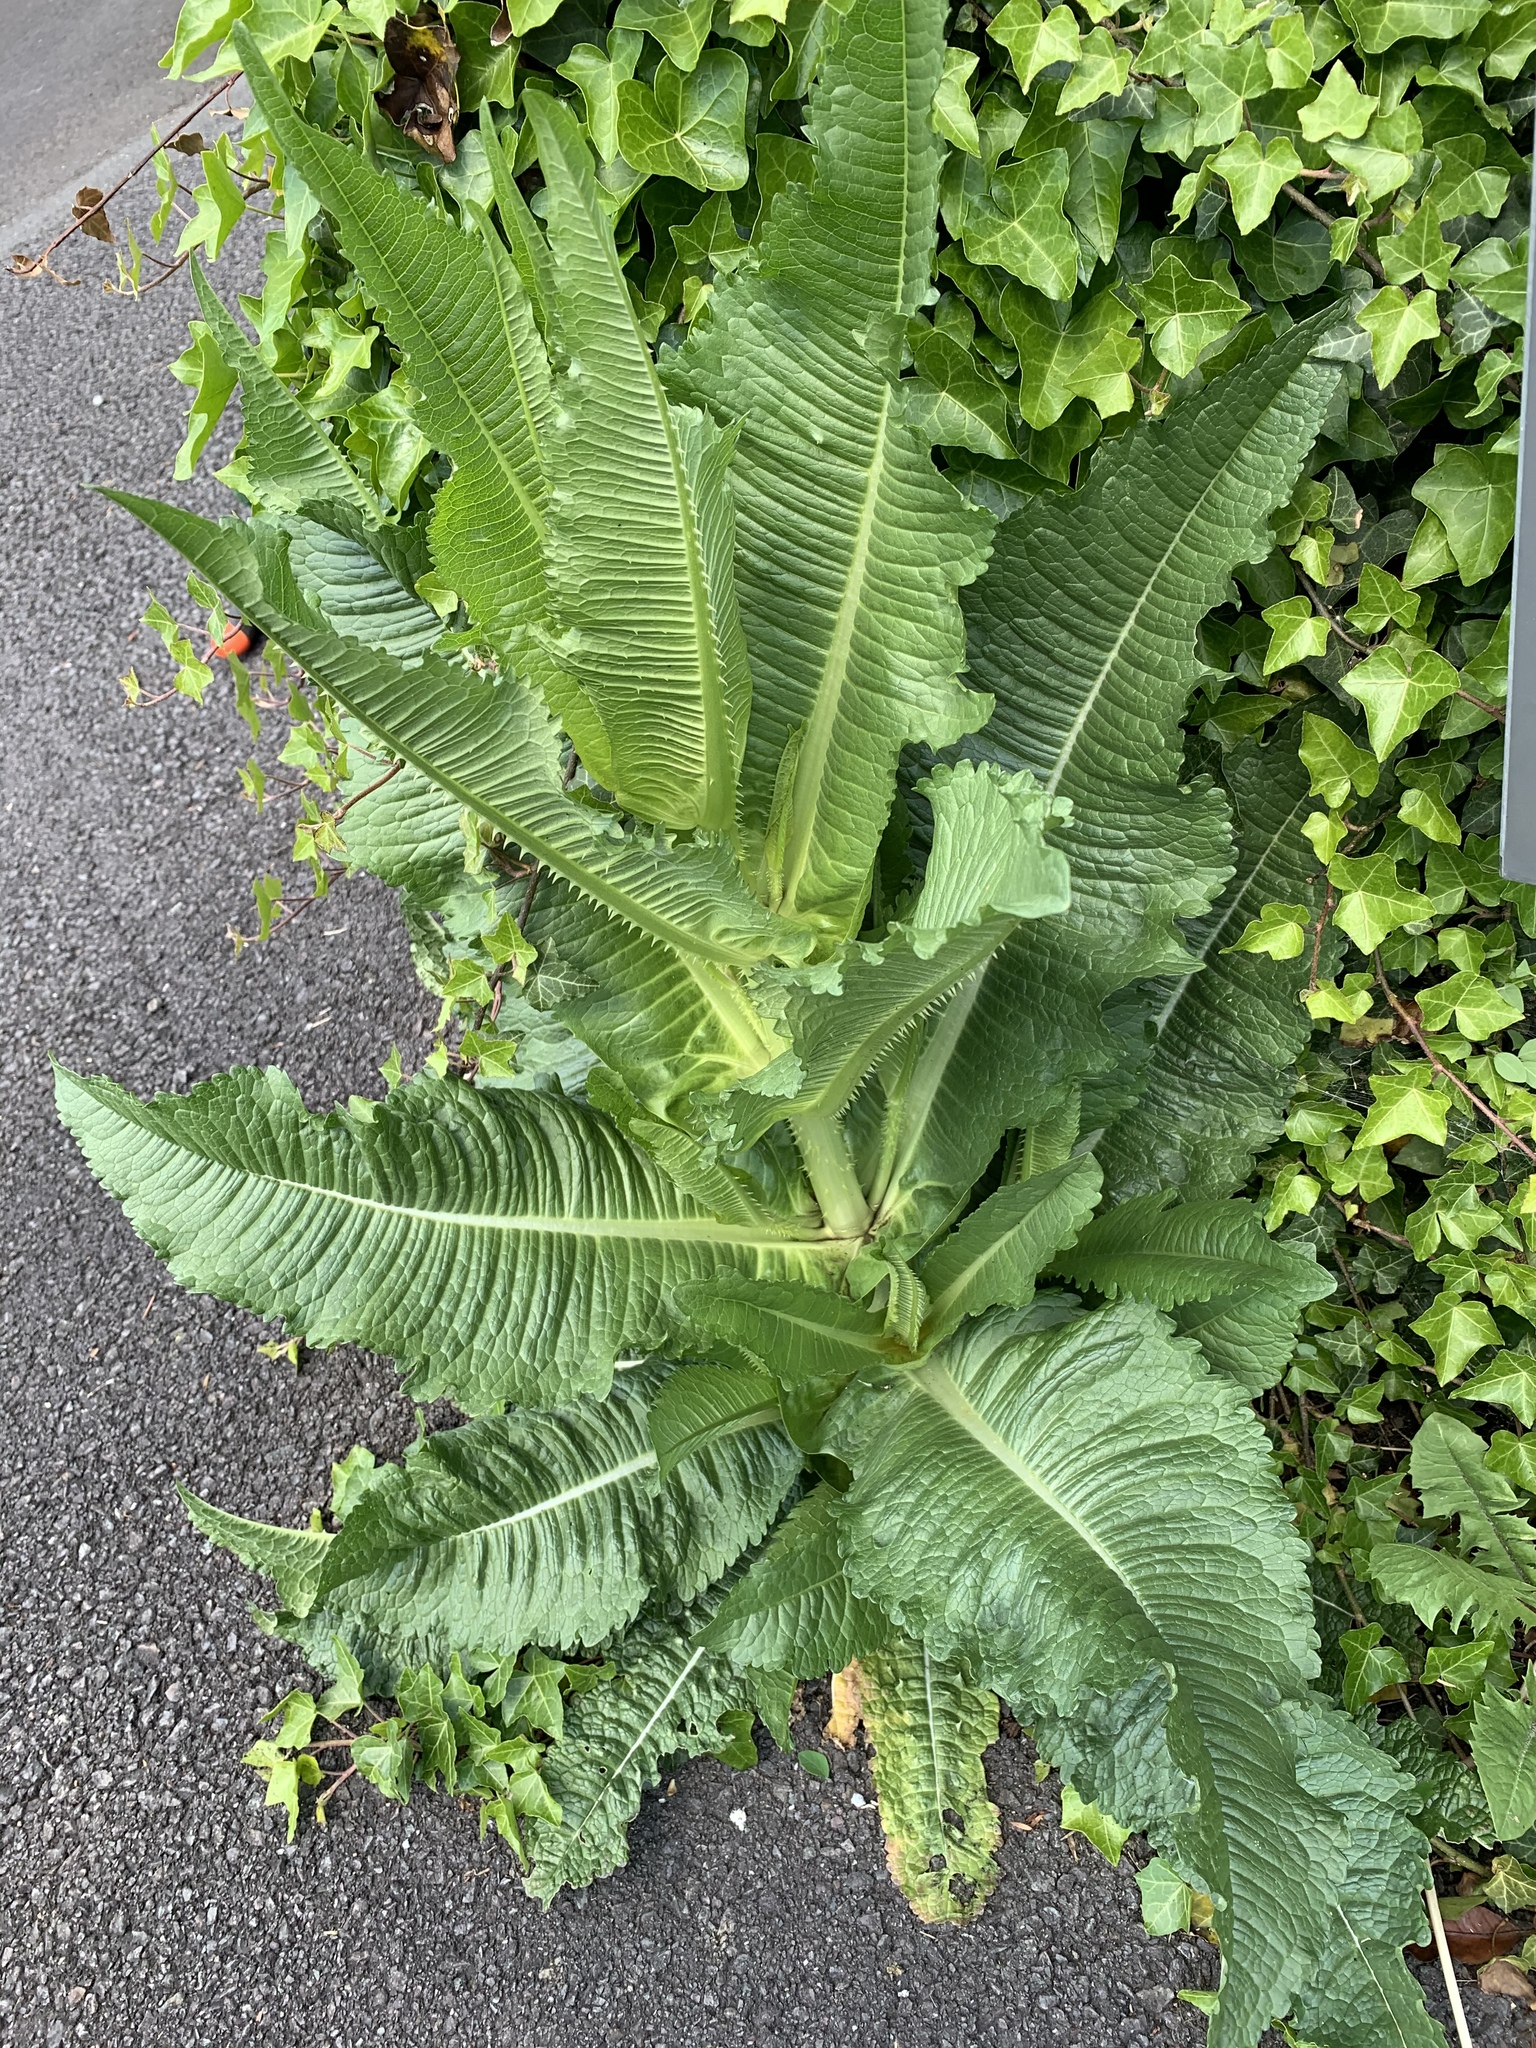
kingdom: Plantae
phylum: Tracheophyta
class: Magnoliopsida
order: Dipsacales
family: Caprifoliaceae
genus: Dipsacus
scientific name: Dipsacus fullonum
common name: Teasel
